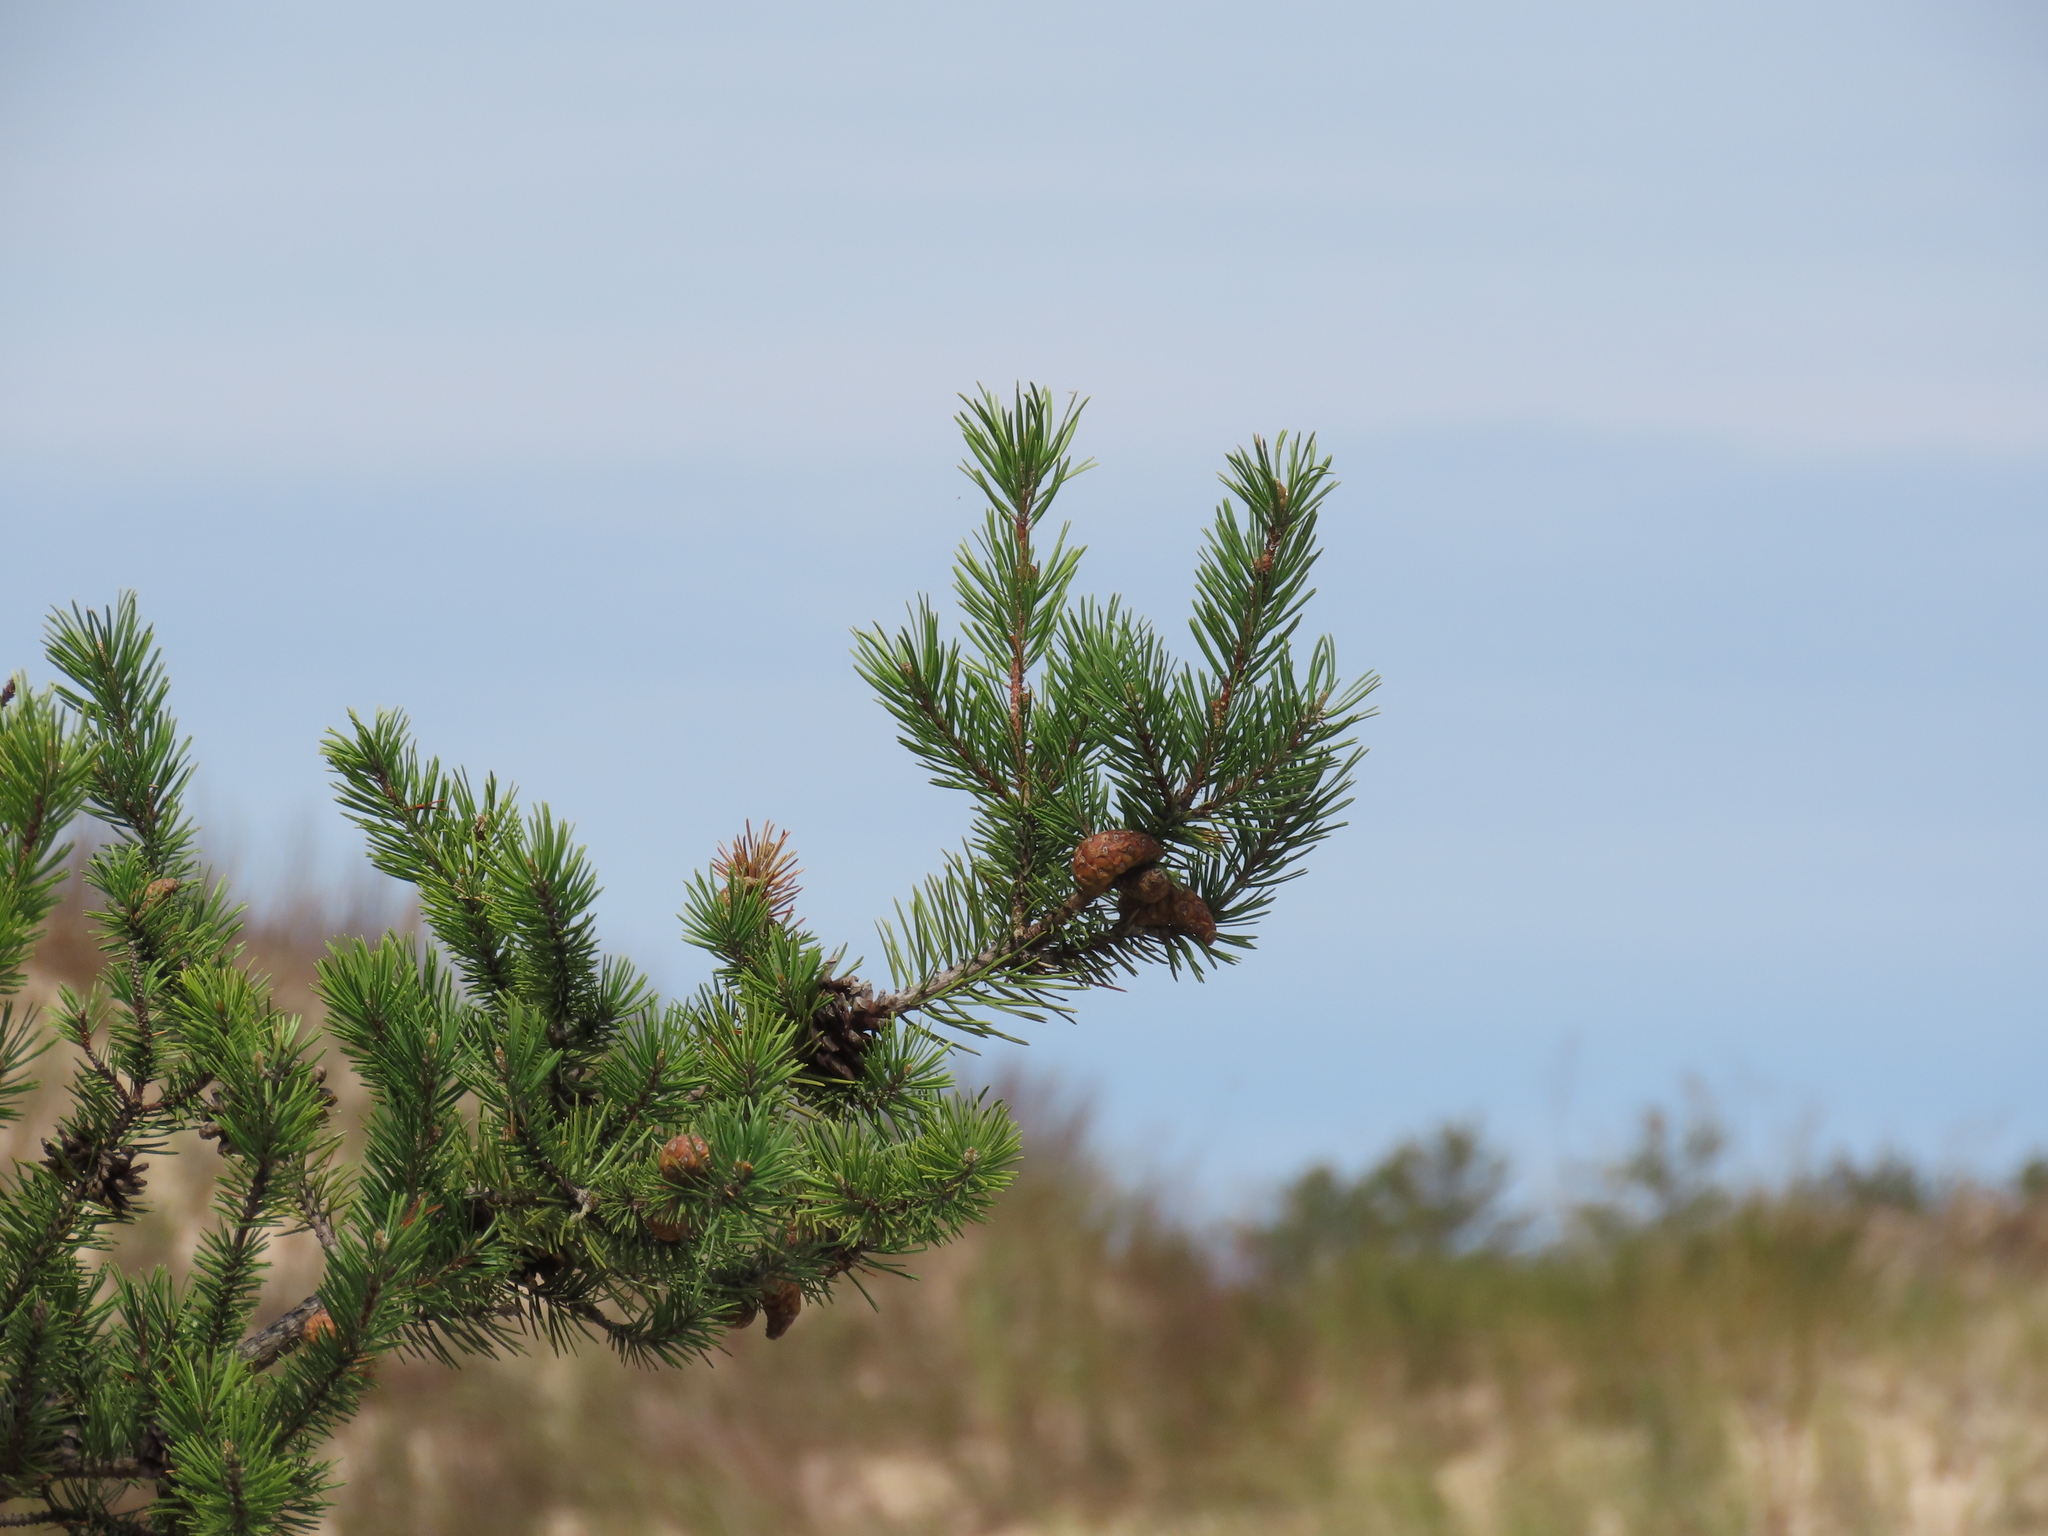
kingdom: Plantae
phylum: Tracheophyta
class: Pinopsida
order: Pinales
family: Pinaceae
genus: Pinus
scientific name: Pinus banksiana
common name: Jack pine
